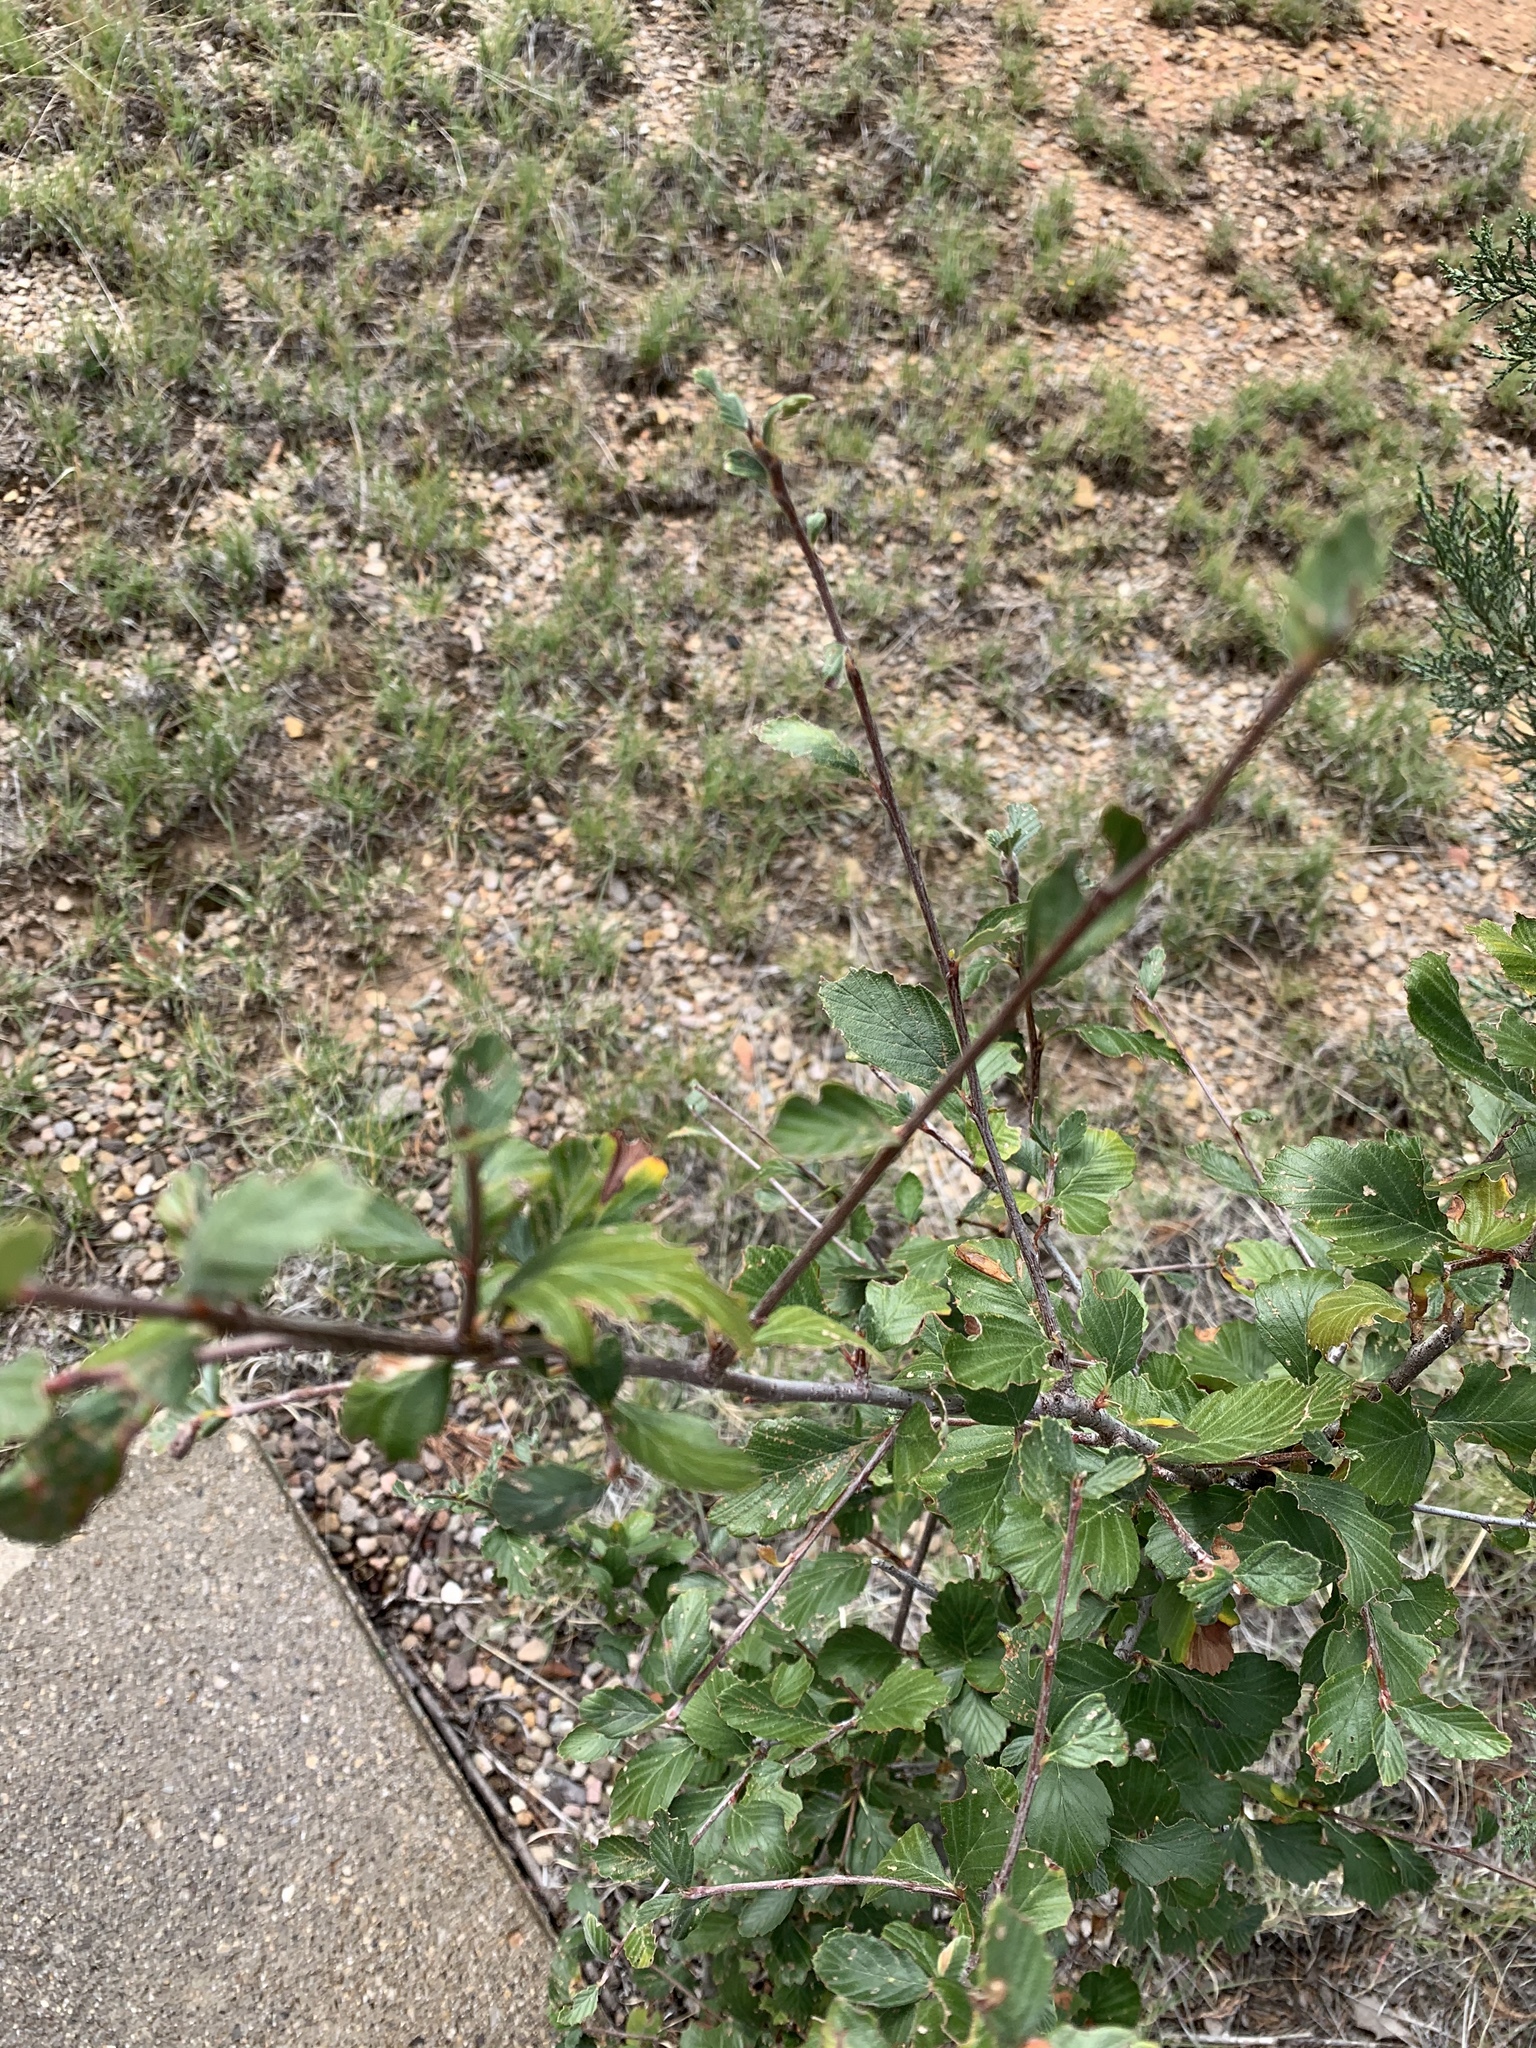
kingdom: Plantae
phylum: Tracheophyta
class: Magnoliopsida
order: Rosales
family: Rosaceae
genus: Cercocarpus
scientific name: Cercocarpus montanus
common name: Alder-leaf cercocarpus
